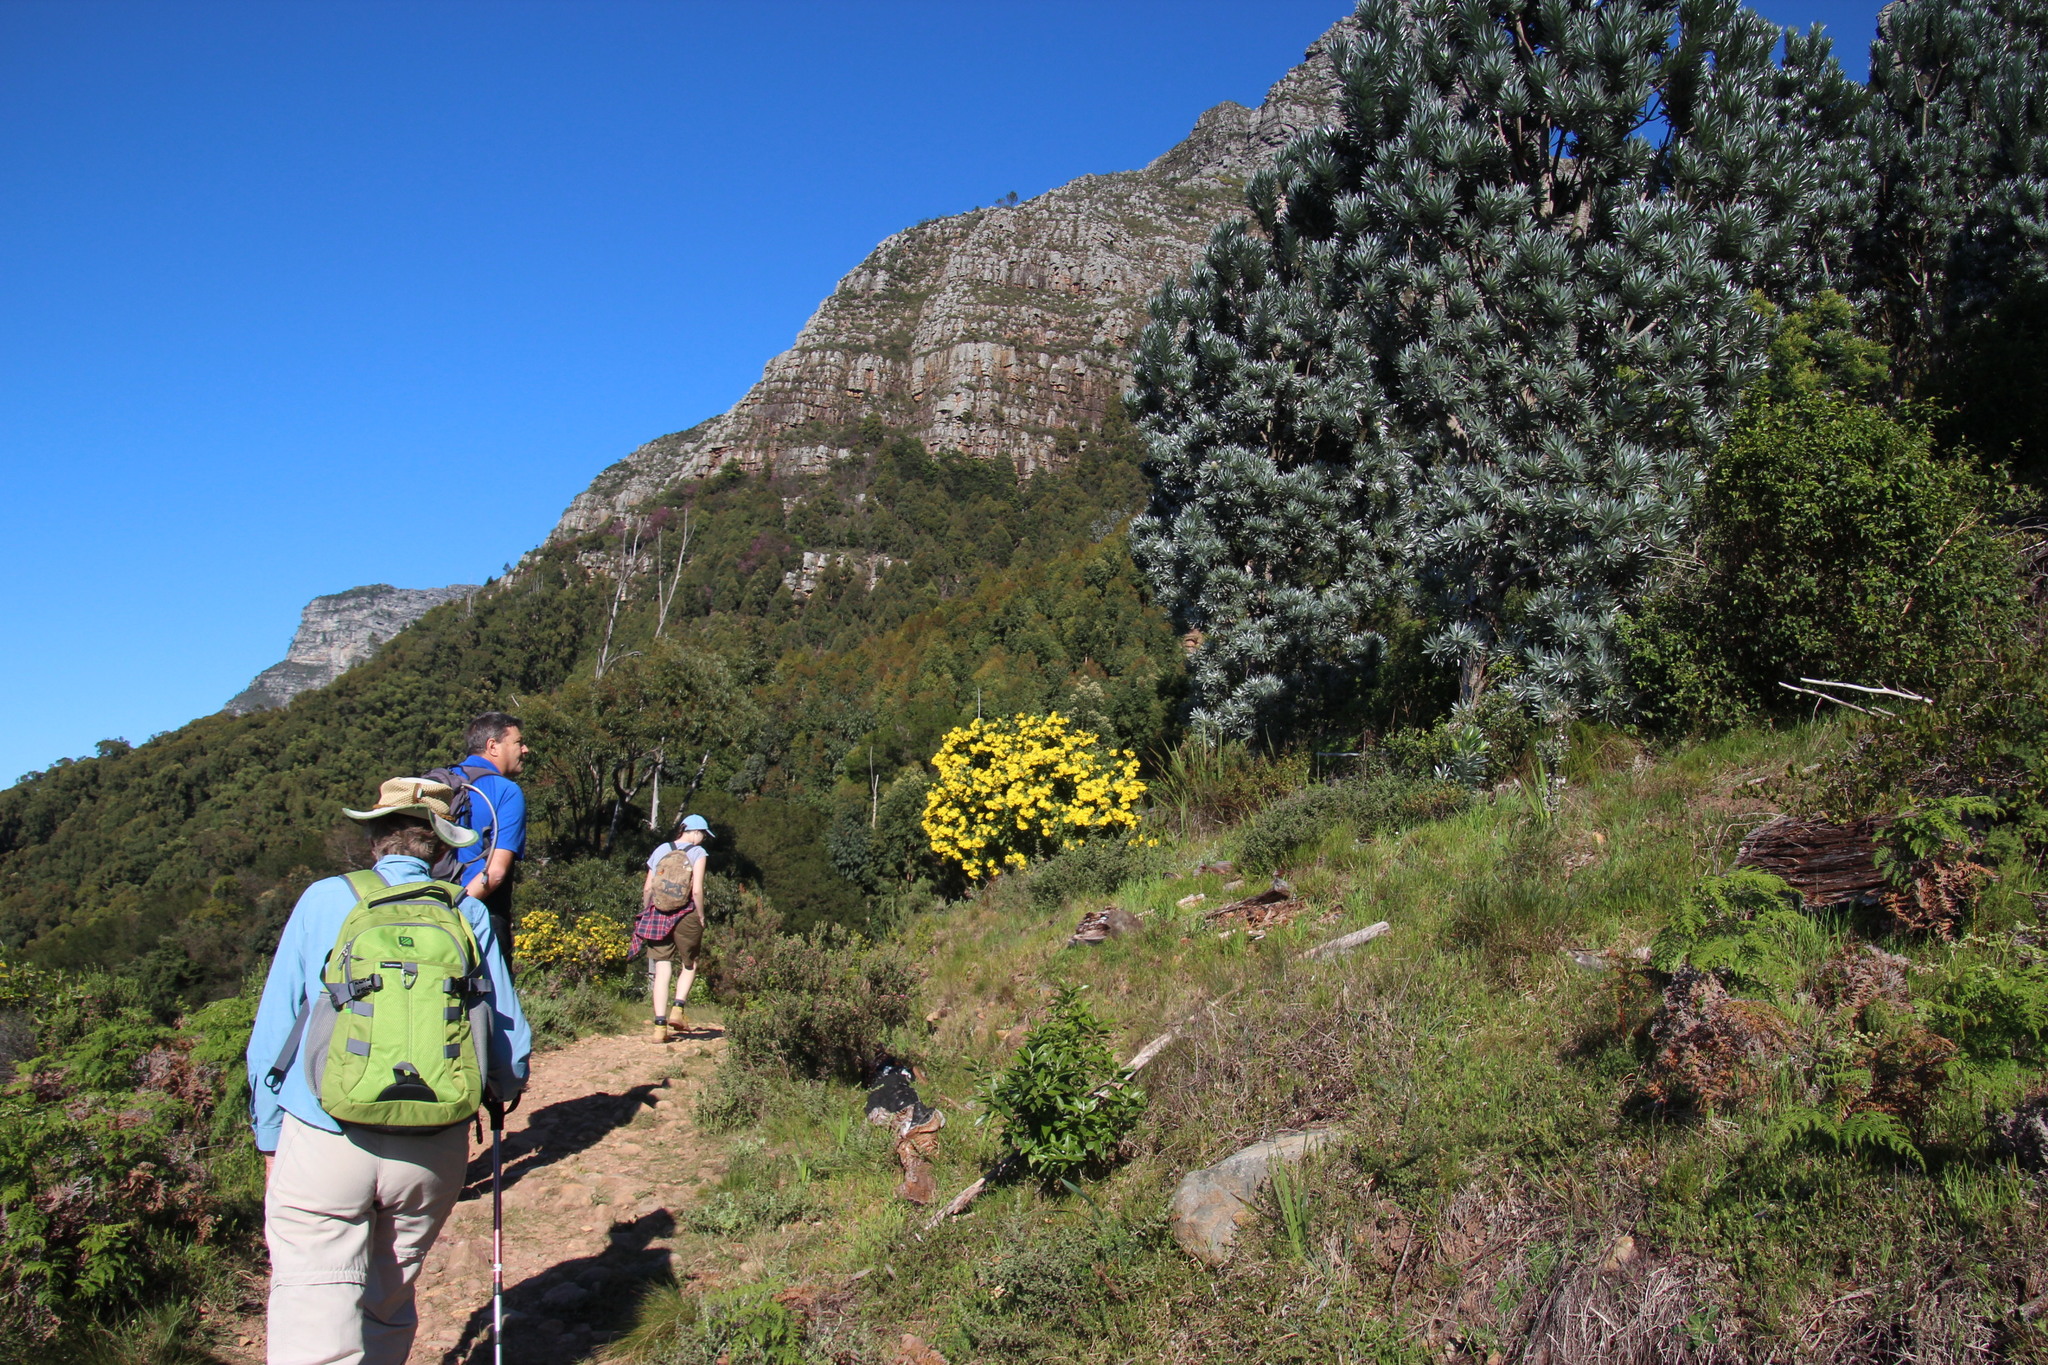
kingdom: Plantae
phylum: Tracheophyta
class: Magnoliopsida
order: Asterales
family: Asteraceae
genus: Osteospermum
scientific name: Osteospermum moniliferum
